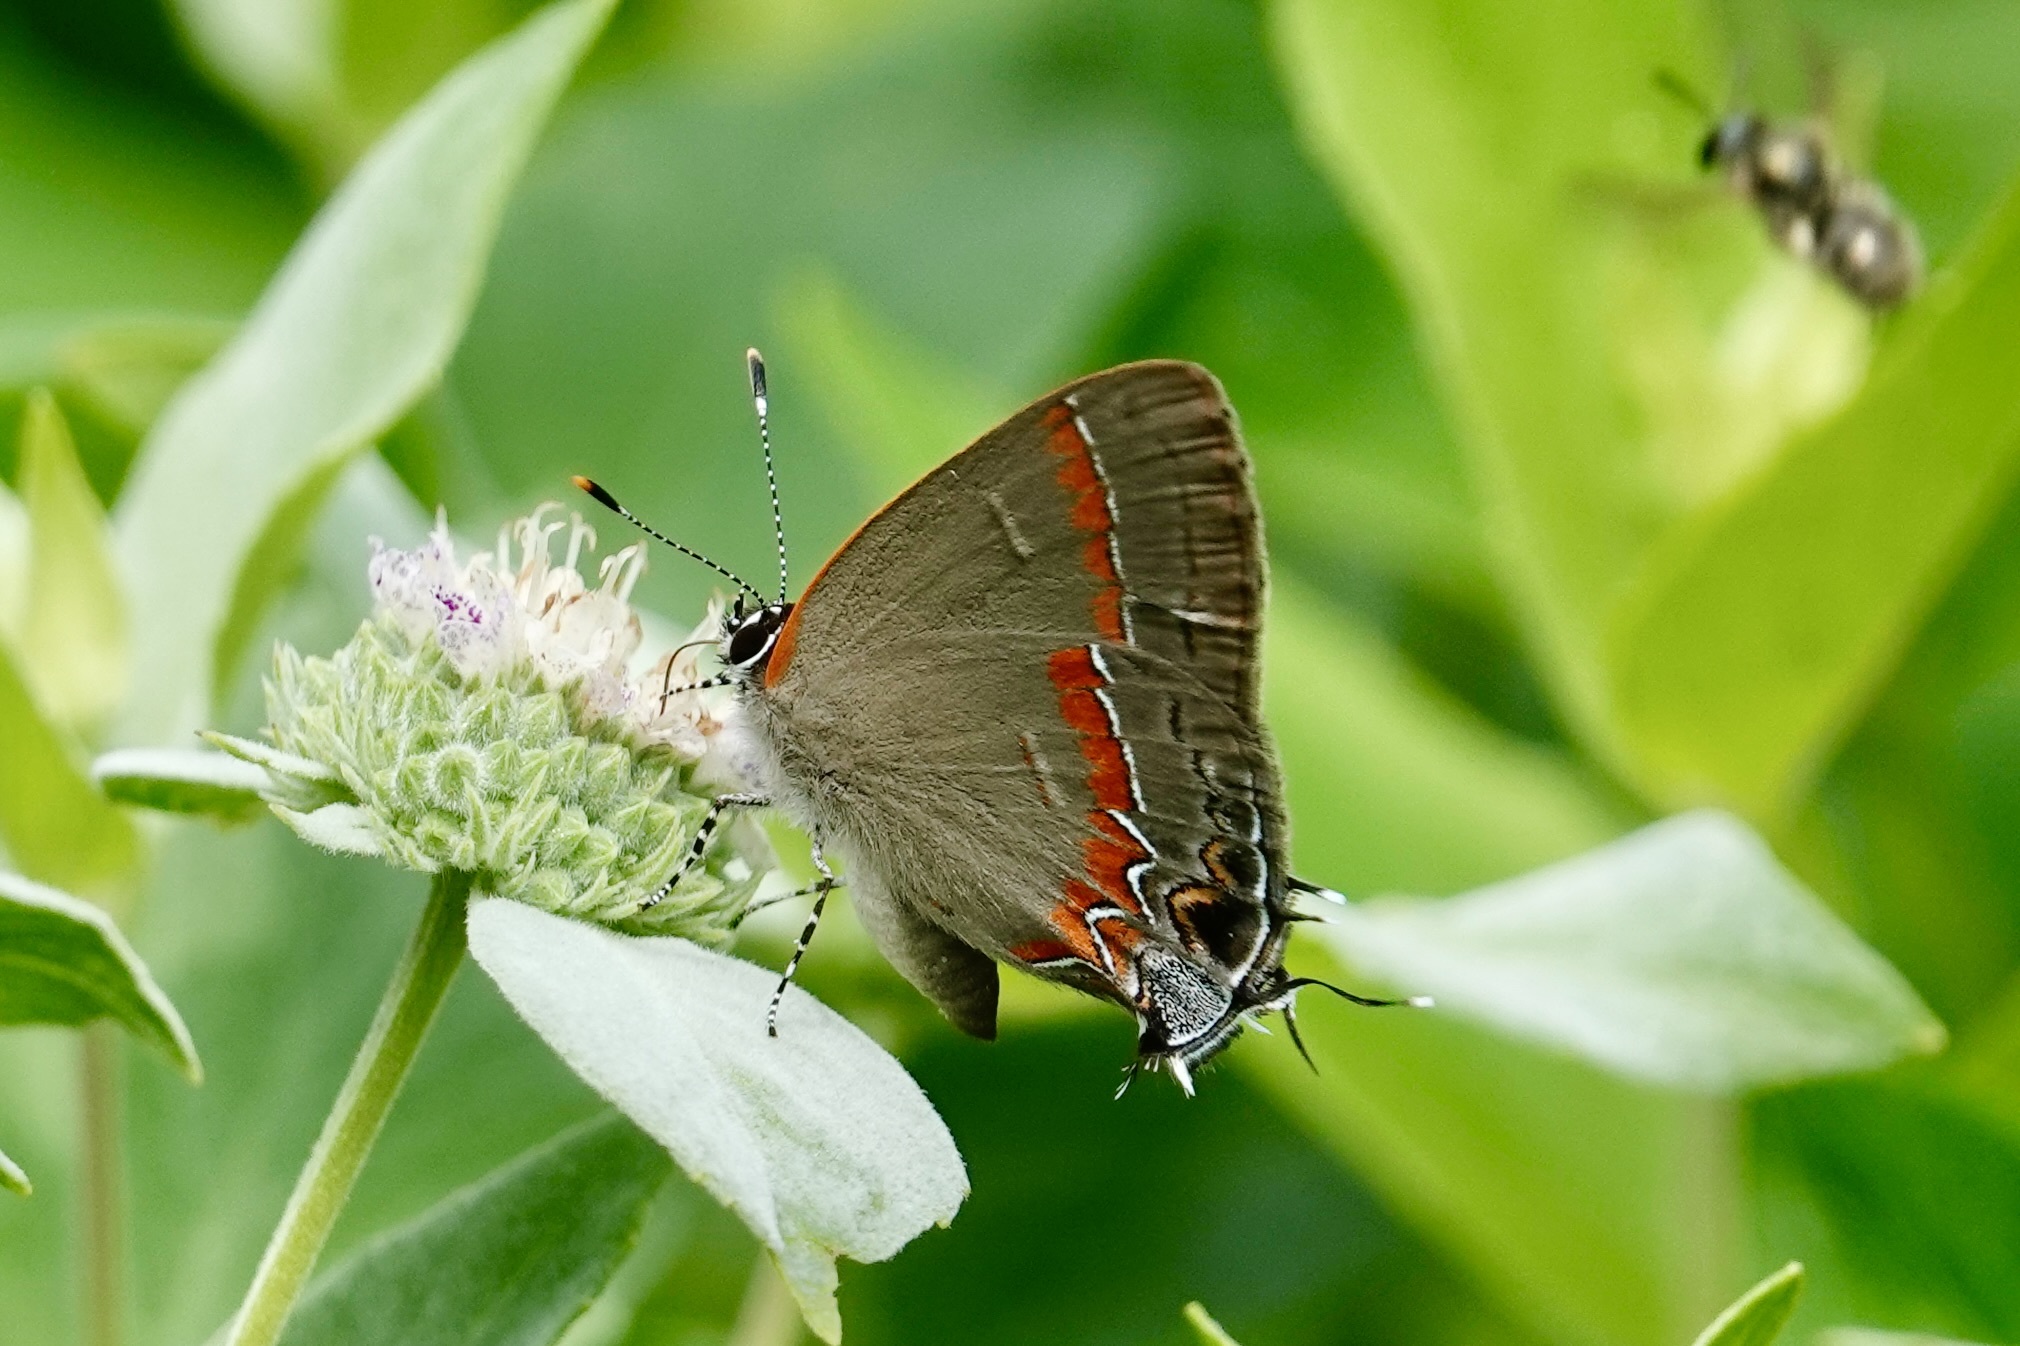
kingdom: Animalia
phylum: Arthropoda
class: Insecta
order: Lepidoptera
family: Lycaenidae
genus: Calycopis
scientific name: Calycopis cecrops
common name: Red-banded hairstreak
